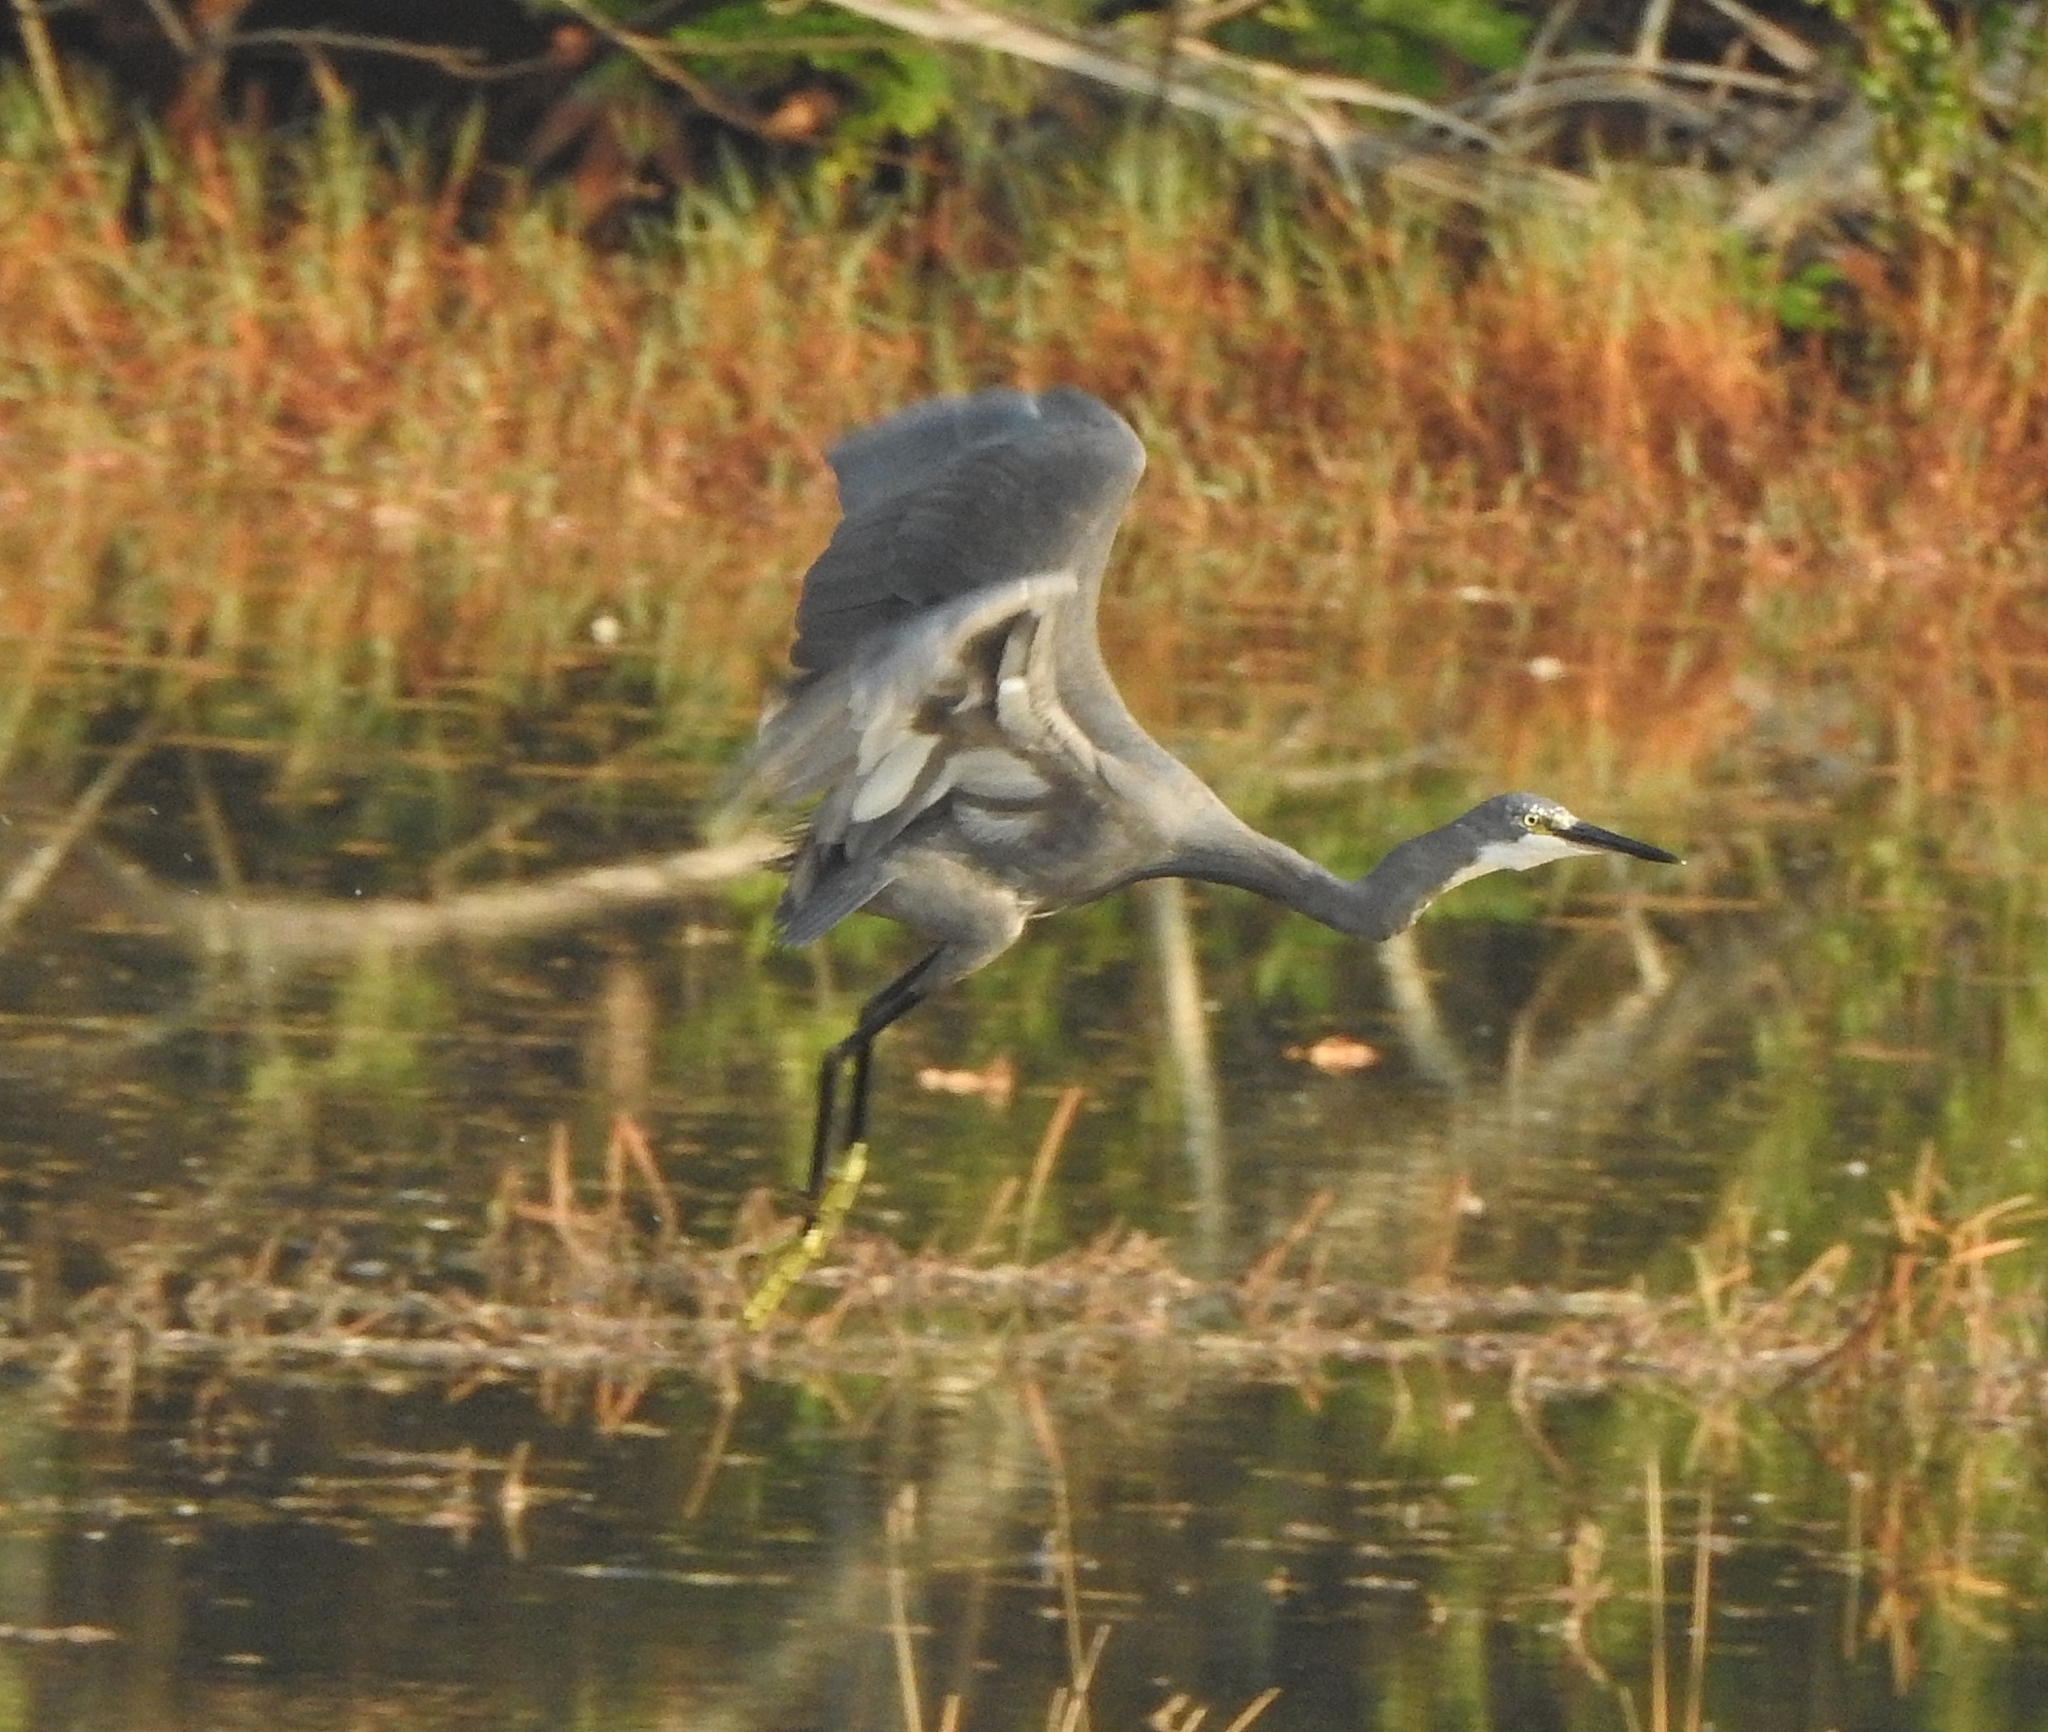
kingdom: Animalia
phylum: Chordata
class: Aves
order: Pelecaniformes
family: Ardeidae
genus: Egretta
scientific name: Egretta garzetta
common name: Little egret
